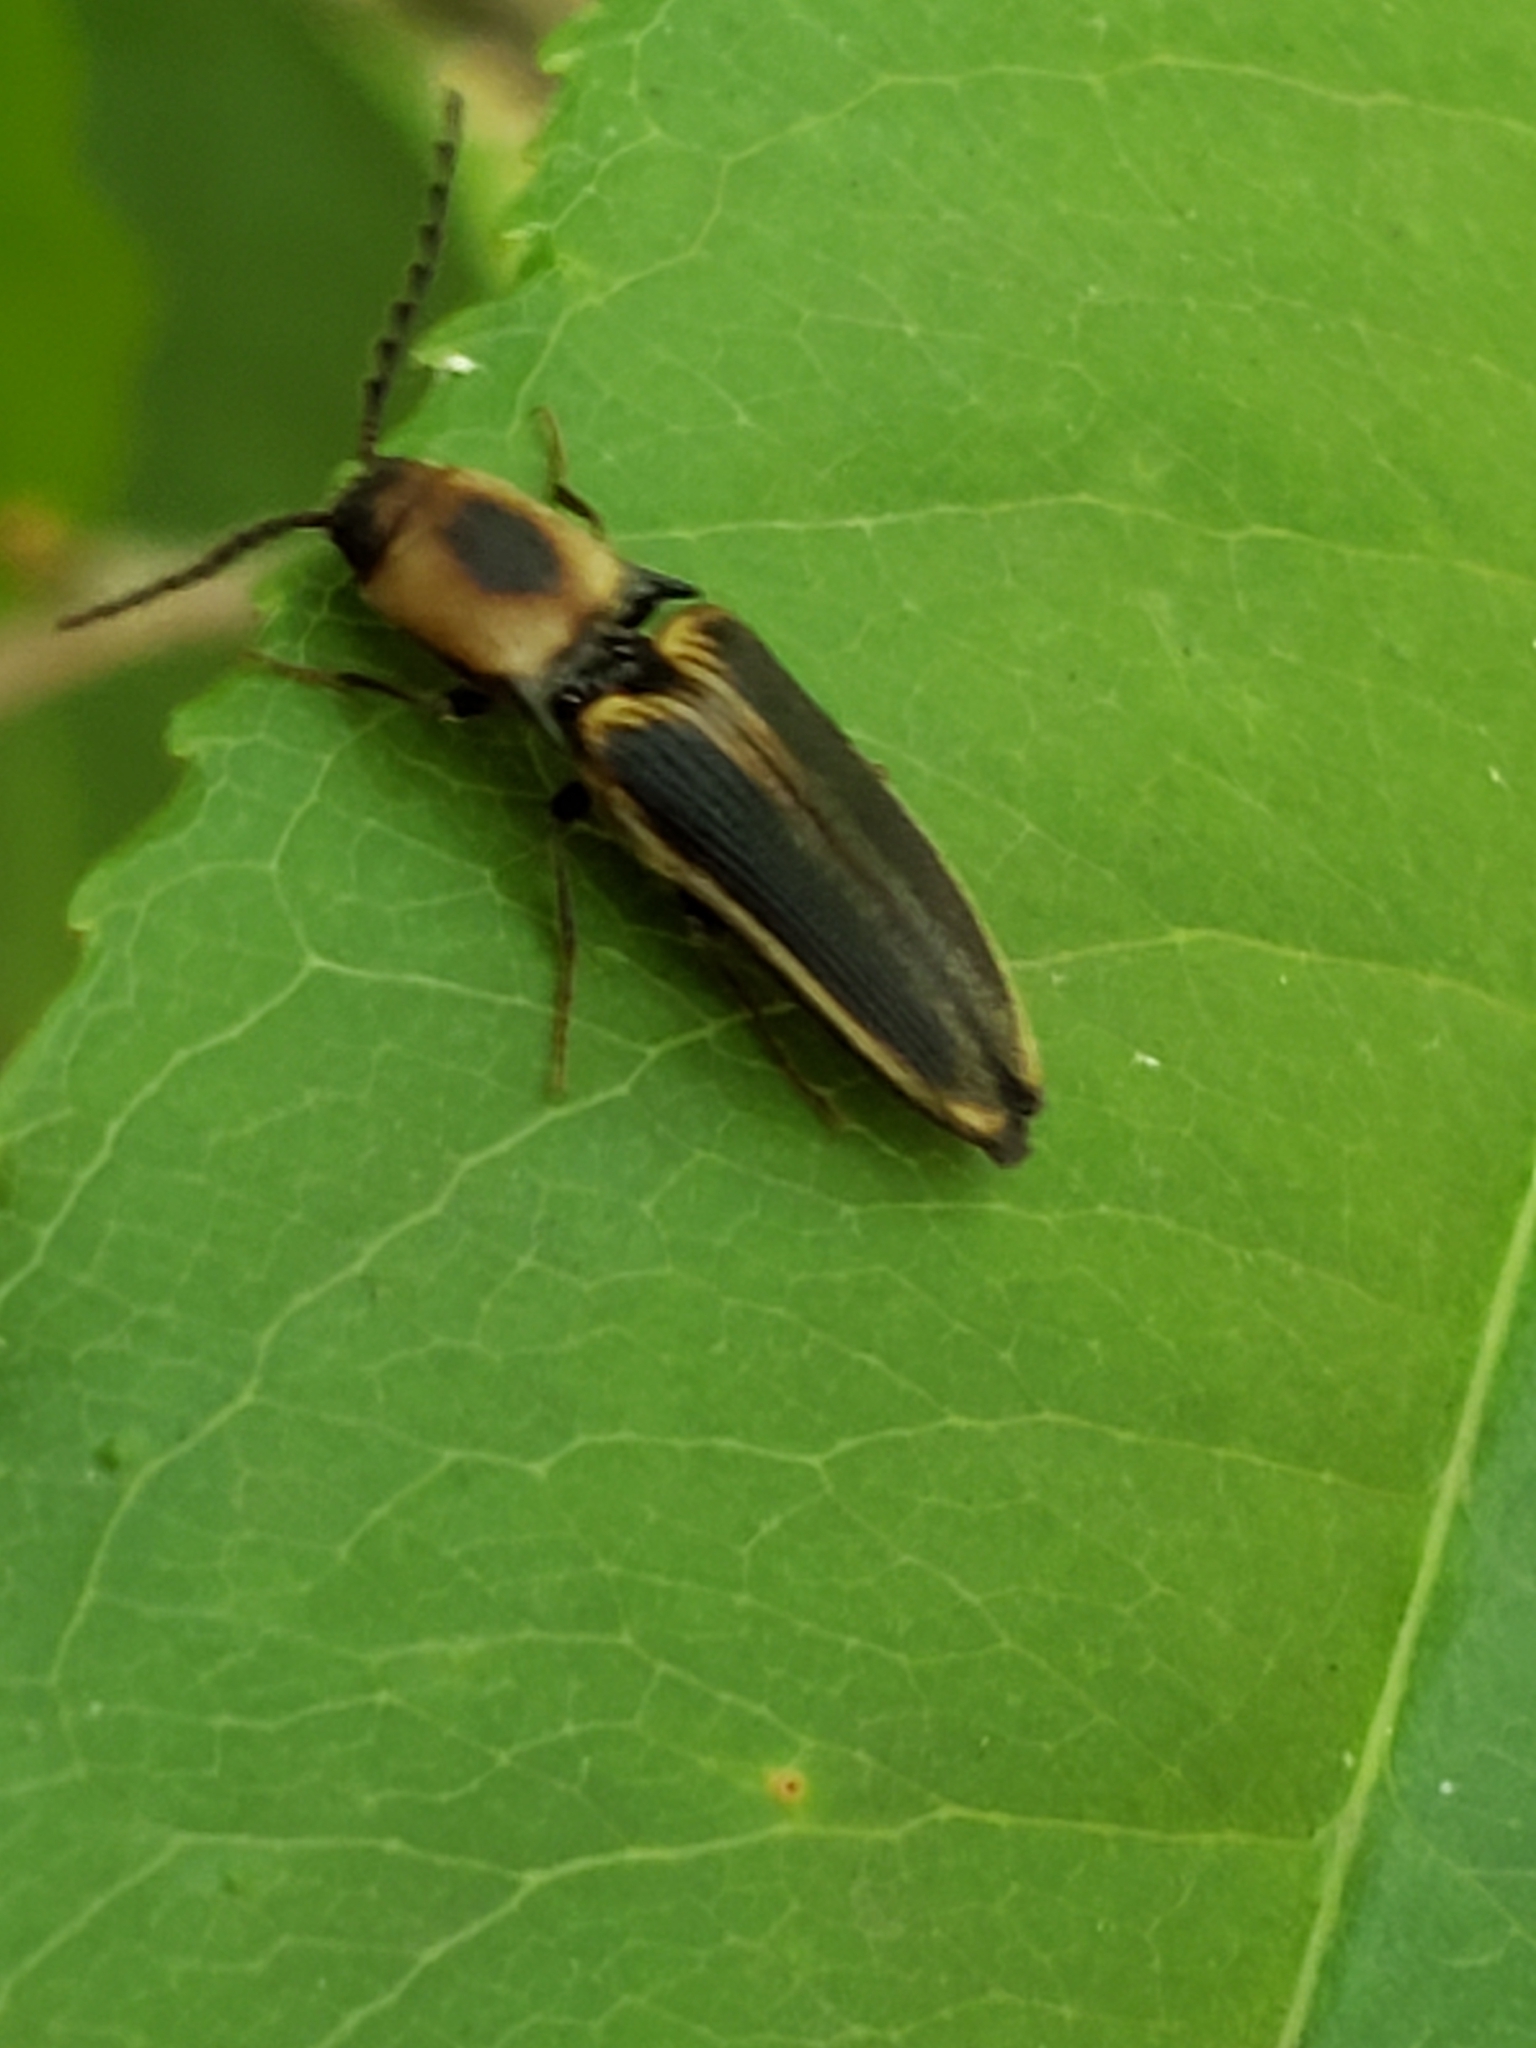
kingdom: Animalia
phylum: Arthropoda
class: Insecta
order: Coleoptera
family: Elateridae
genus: Megapenthes
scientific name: Megapenthes
